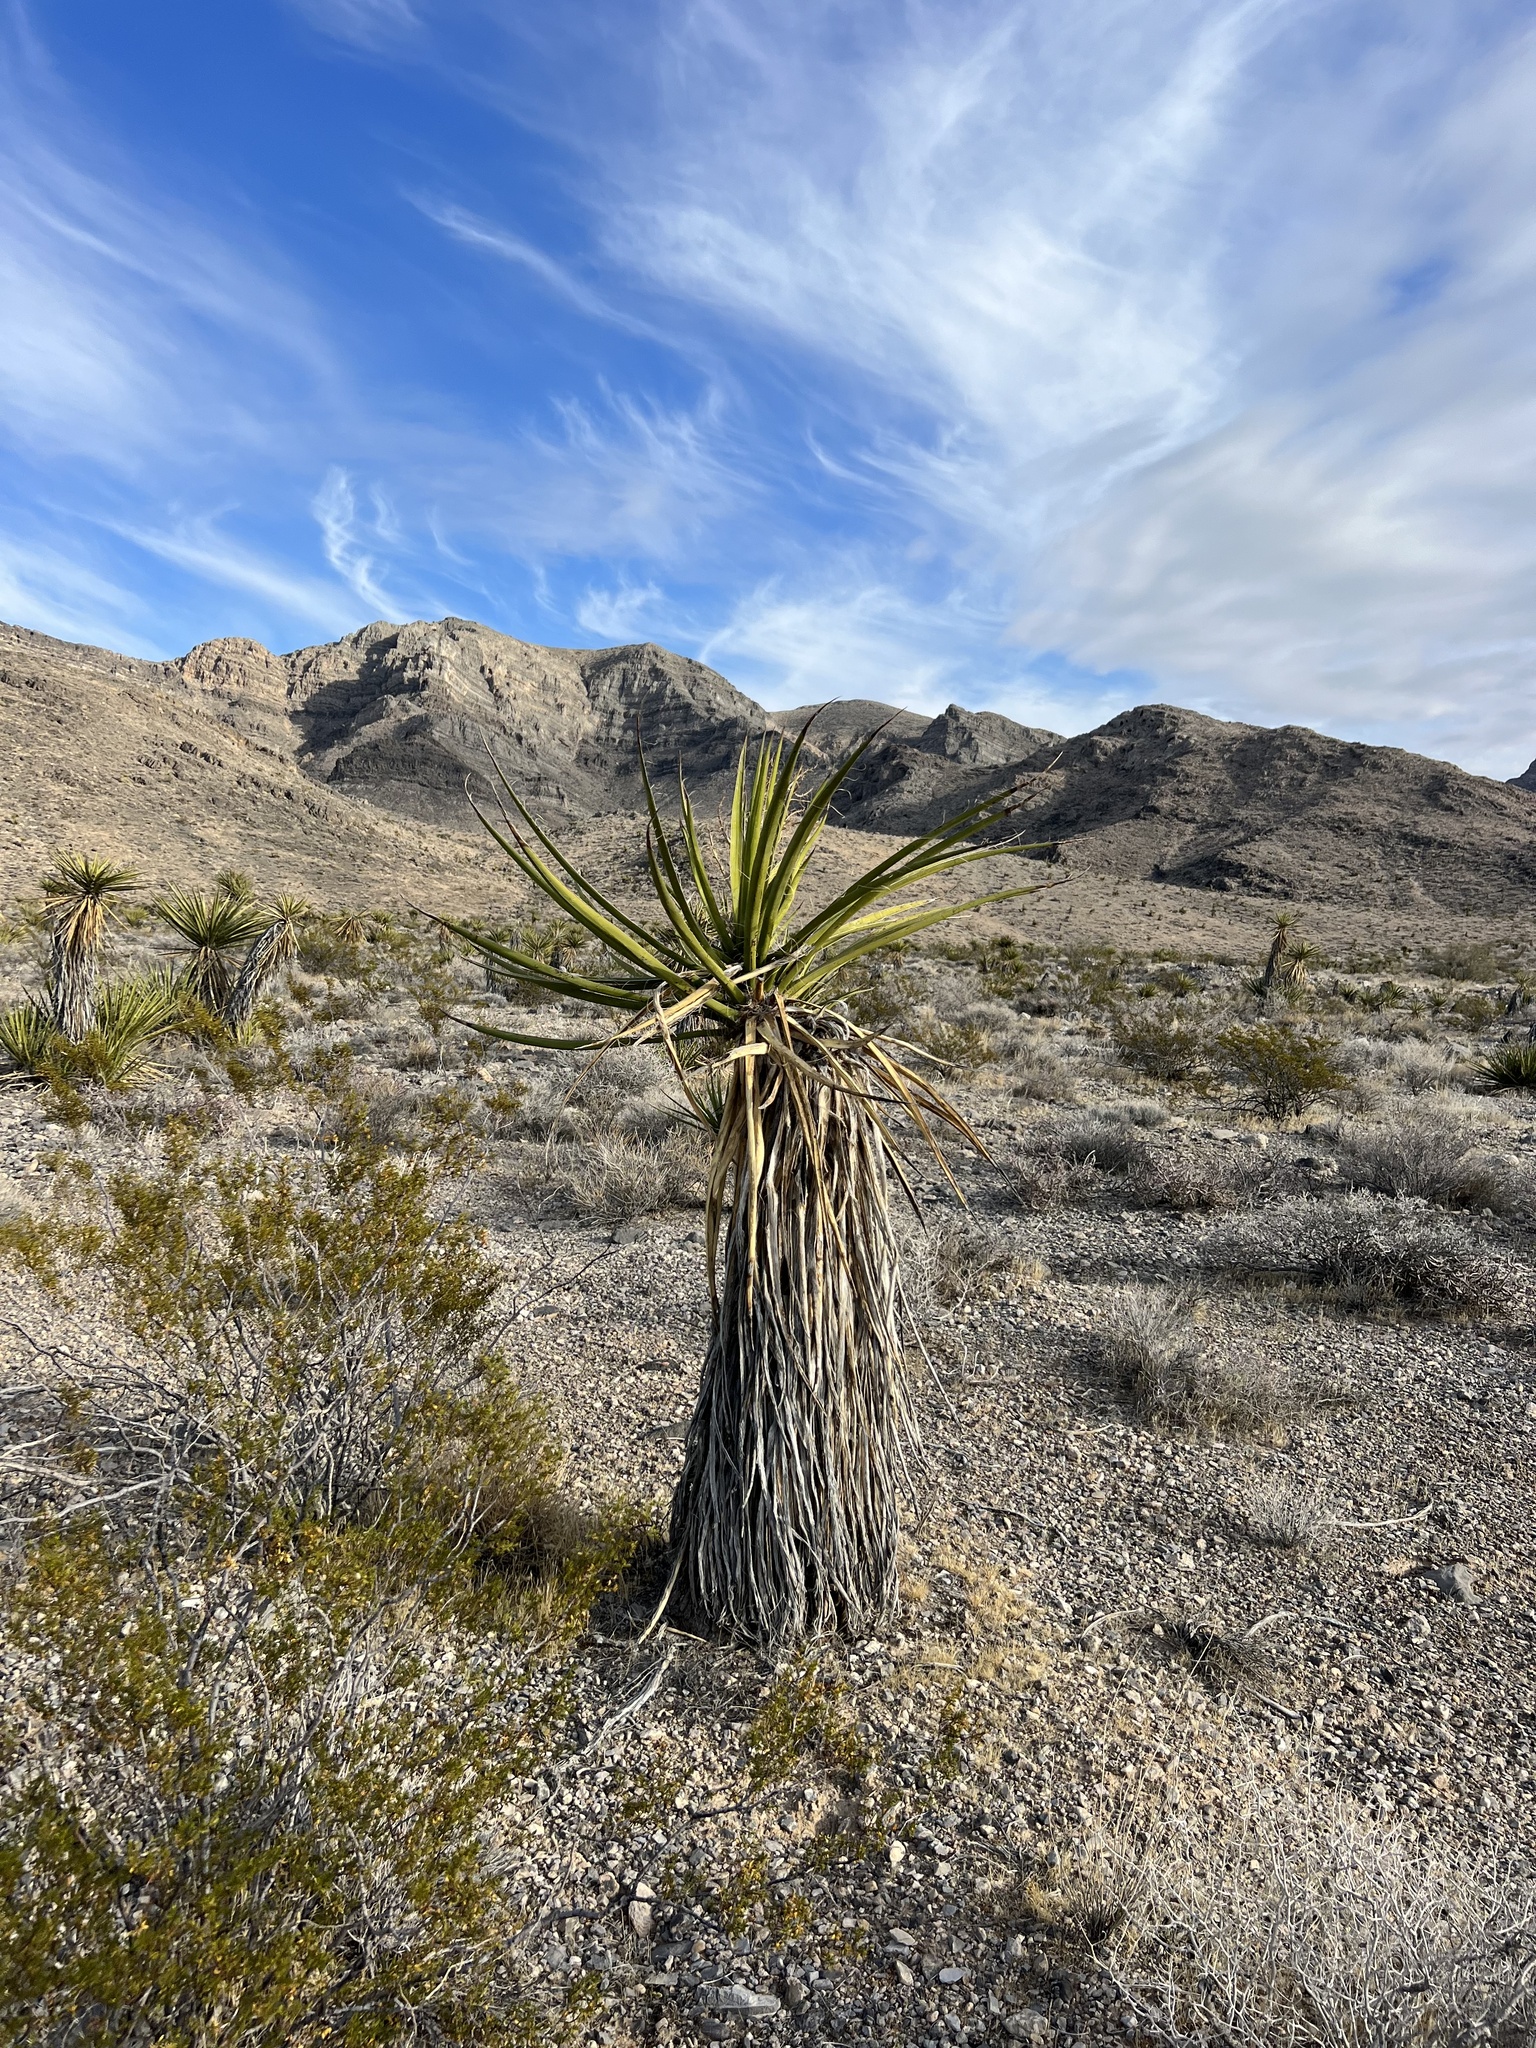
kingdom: Plantae
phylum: Tracheophyta
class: Liliopsida
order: Asparagales
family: Asparagaceae
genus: Yucca
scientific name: Yucca schidigera
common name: Mojave yucca
